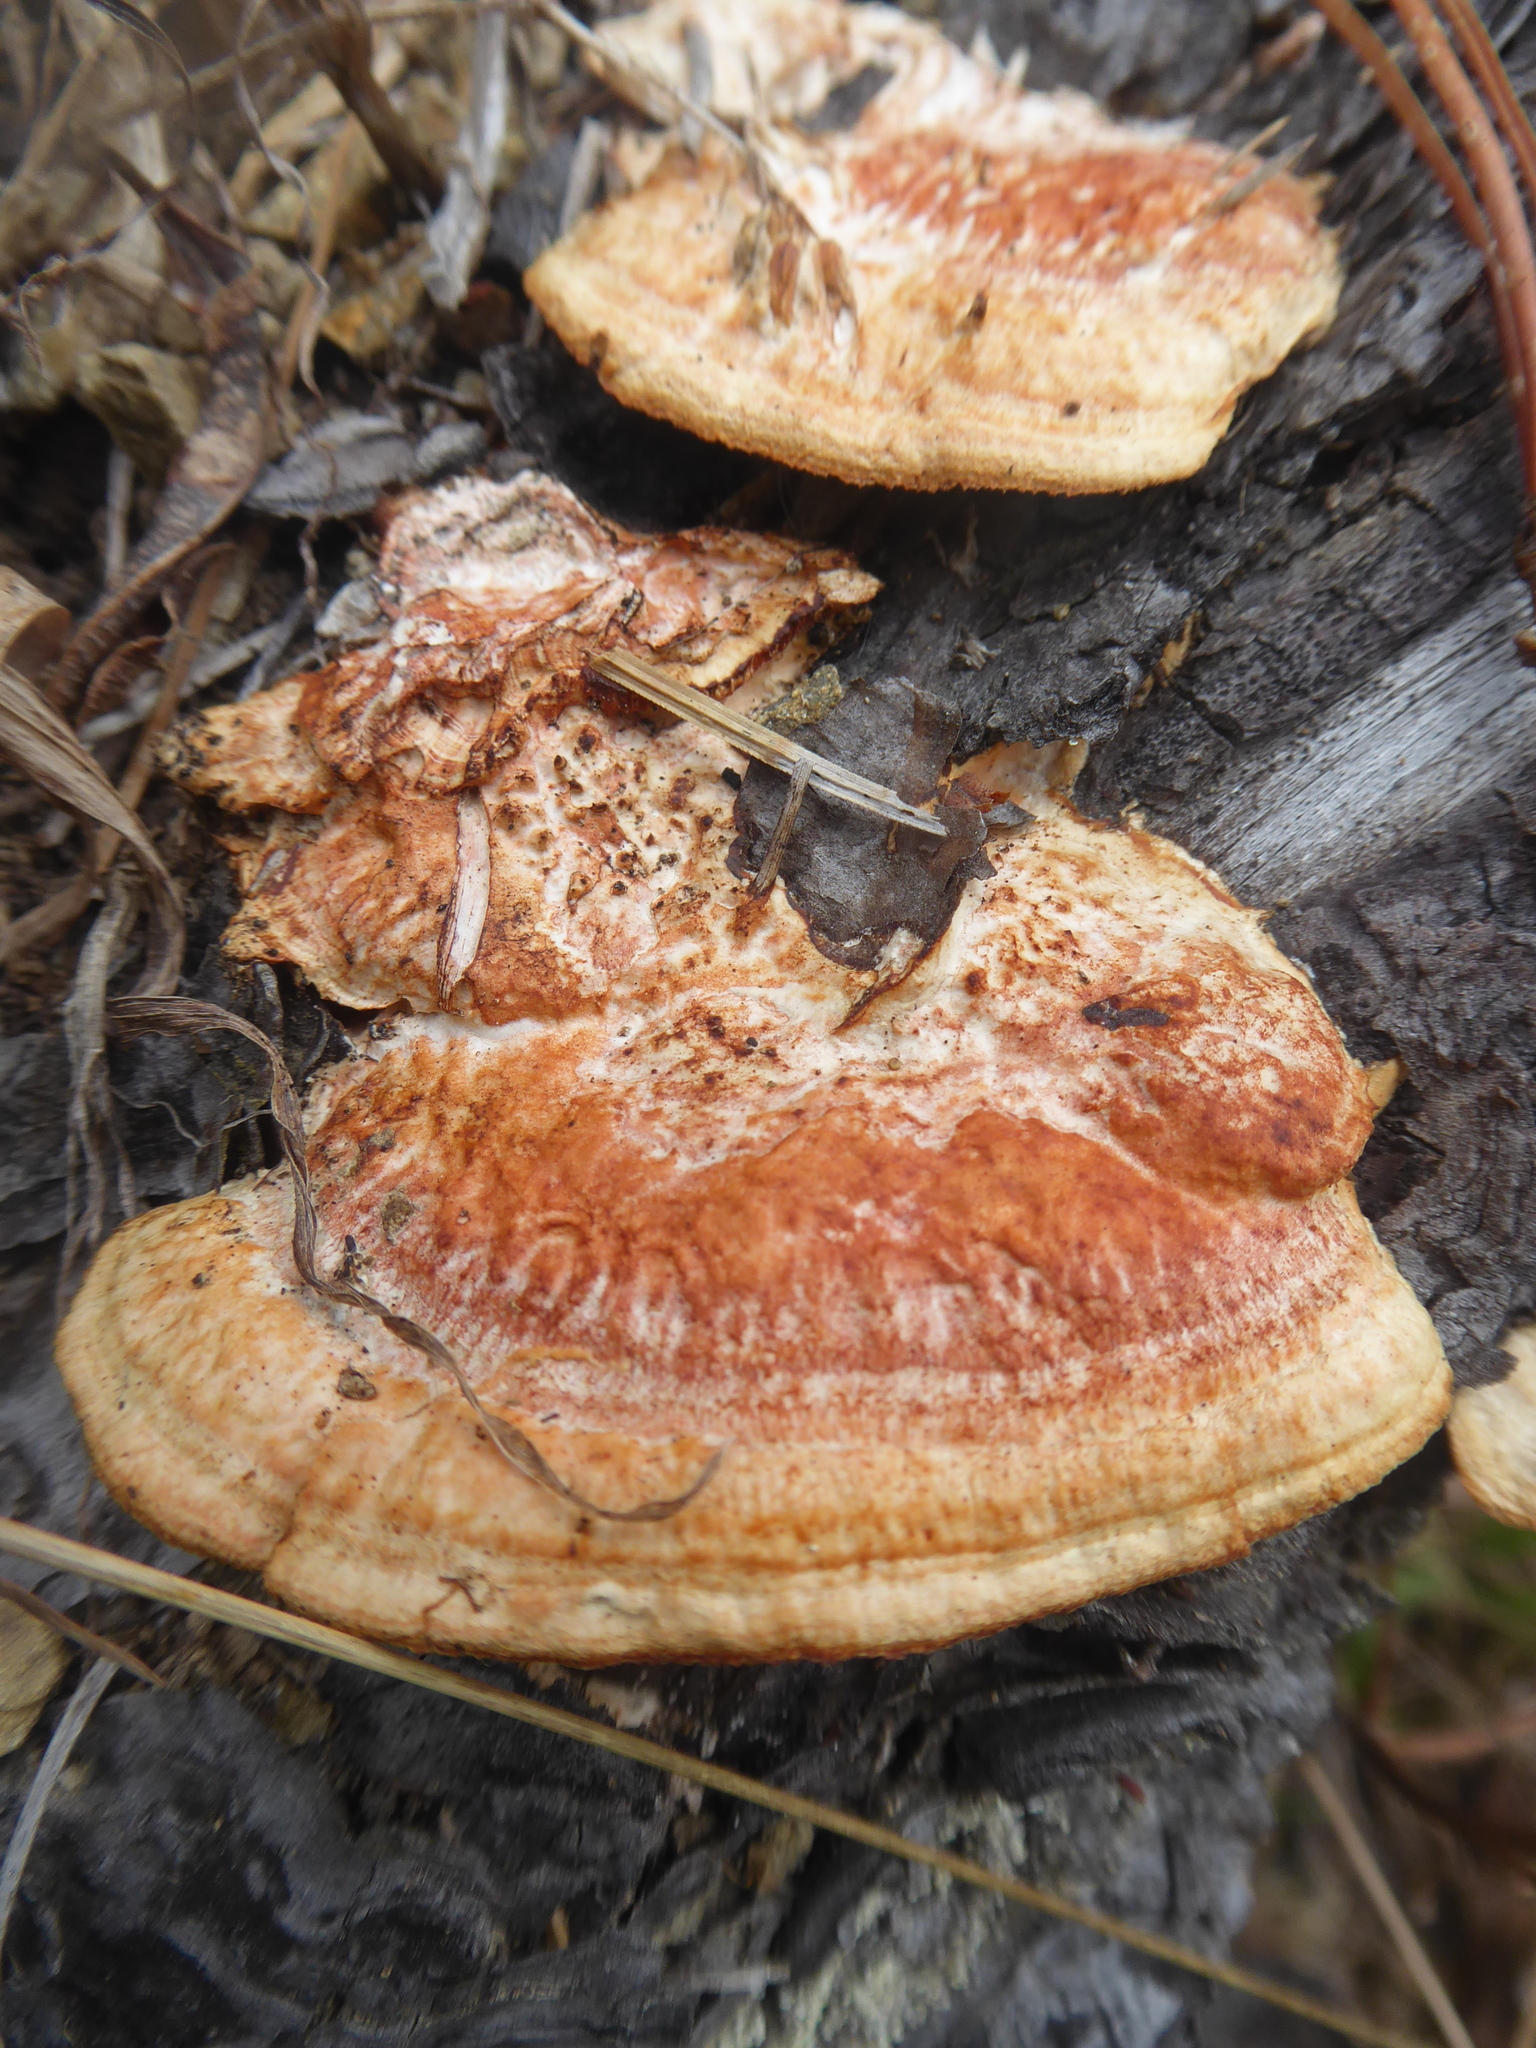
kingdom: Fungi
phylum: Basidiomycota
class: Agaricomycetes
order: Polyporales
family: Polyporaceae
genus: Trametes
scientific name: Trametes coccinea
